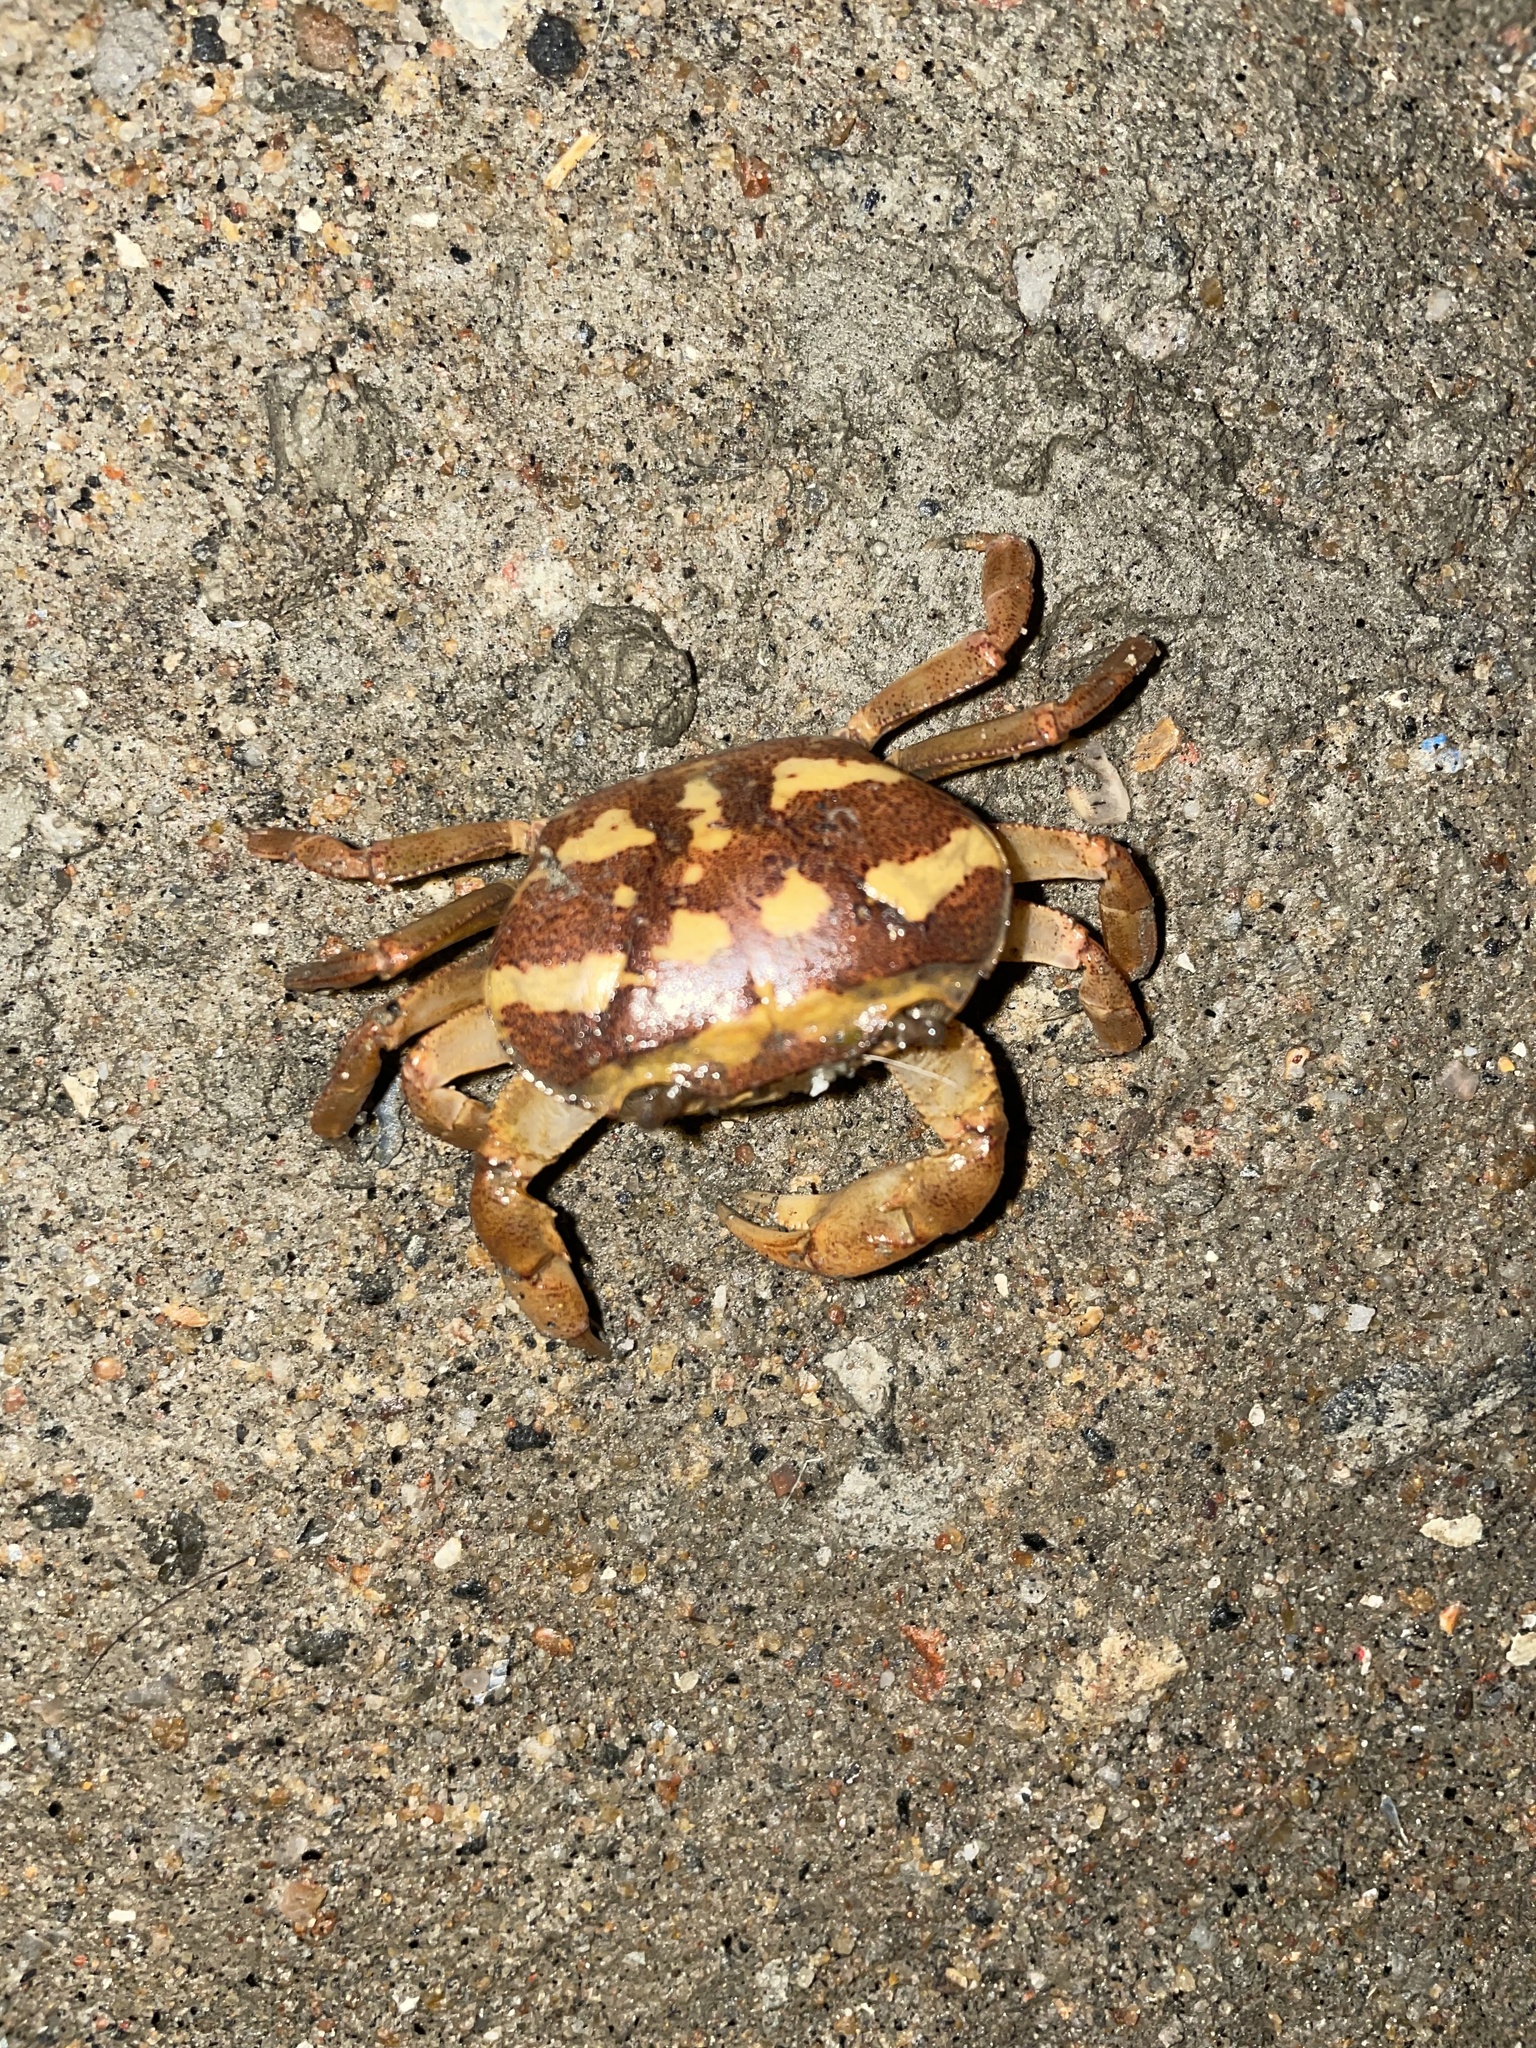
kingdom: Animalia
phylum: Arthropoda
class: Malacostraca
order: Decapoda
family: Gecarcinucidae
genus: Oziotelphusa
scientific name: Oziotelphusa aurantia
